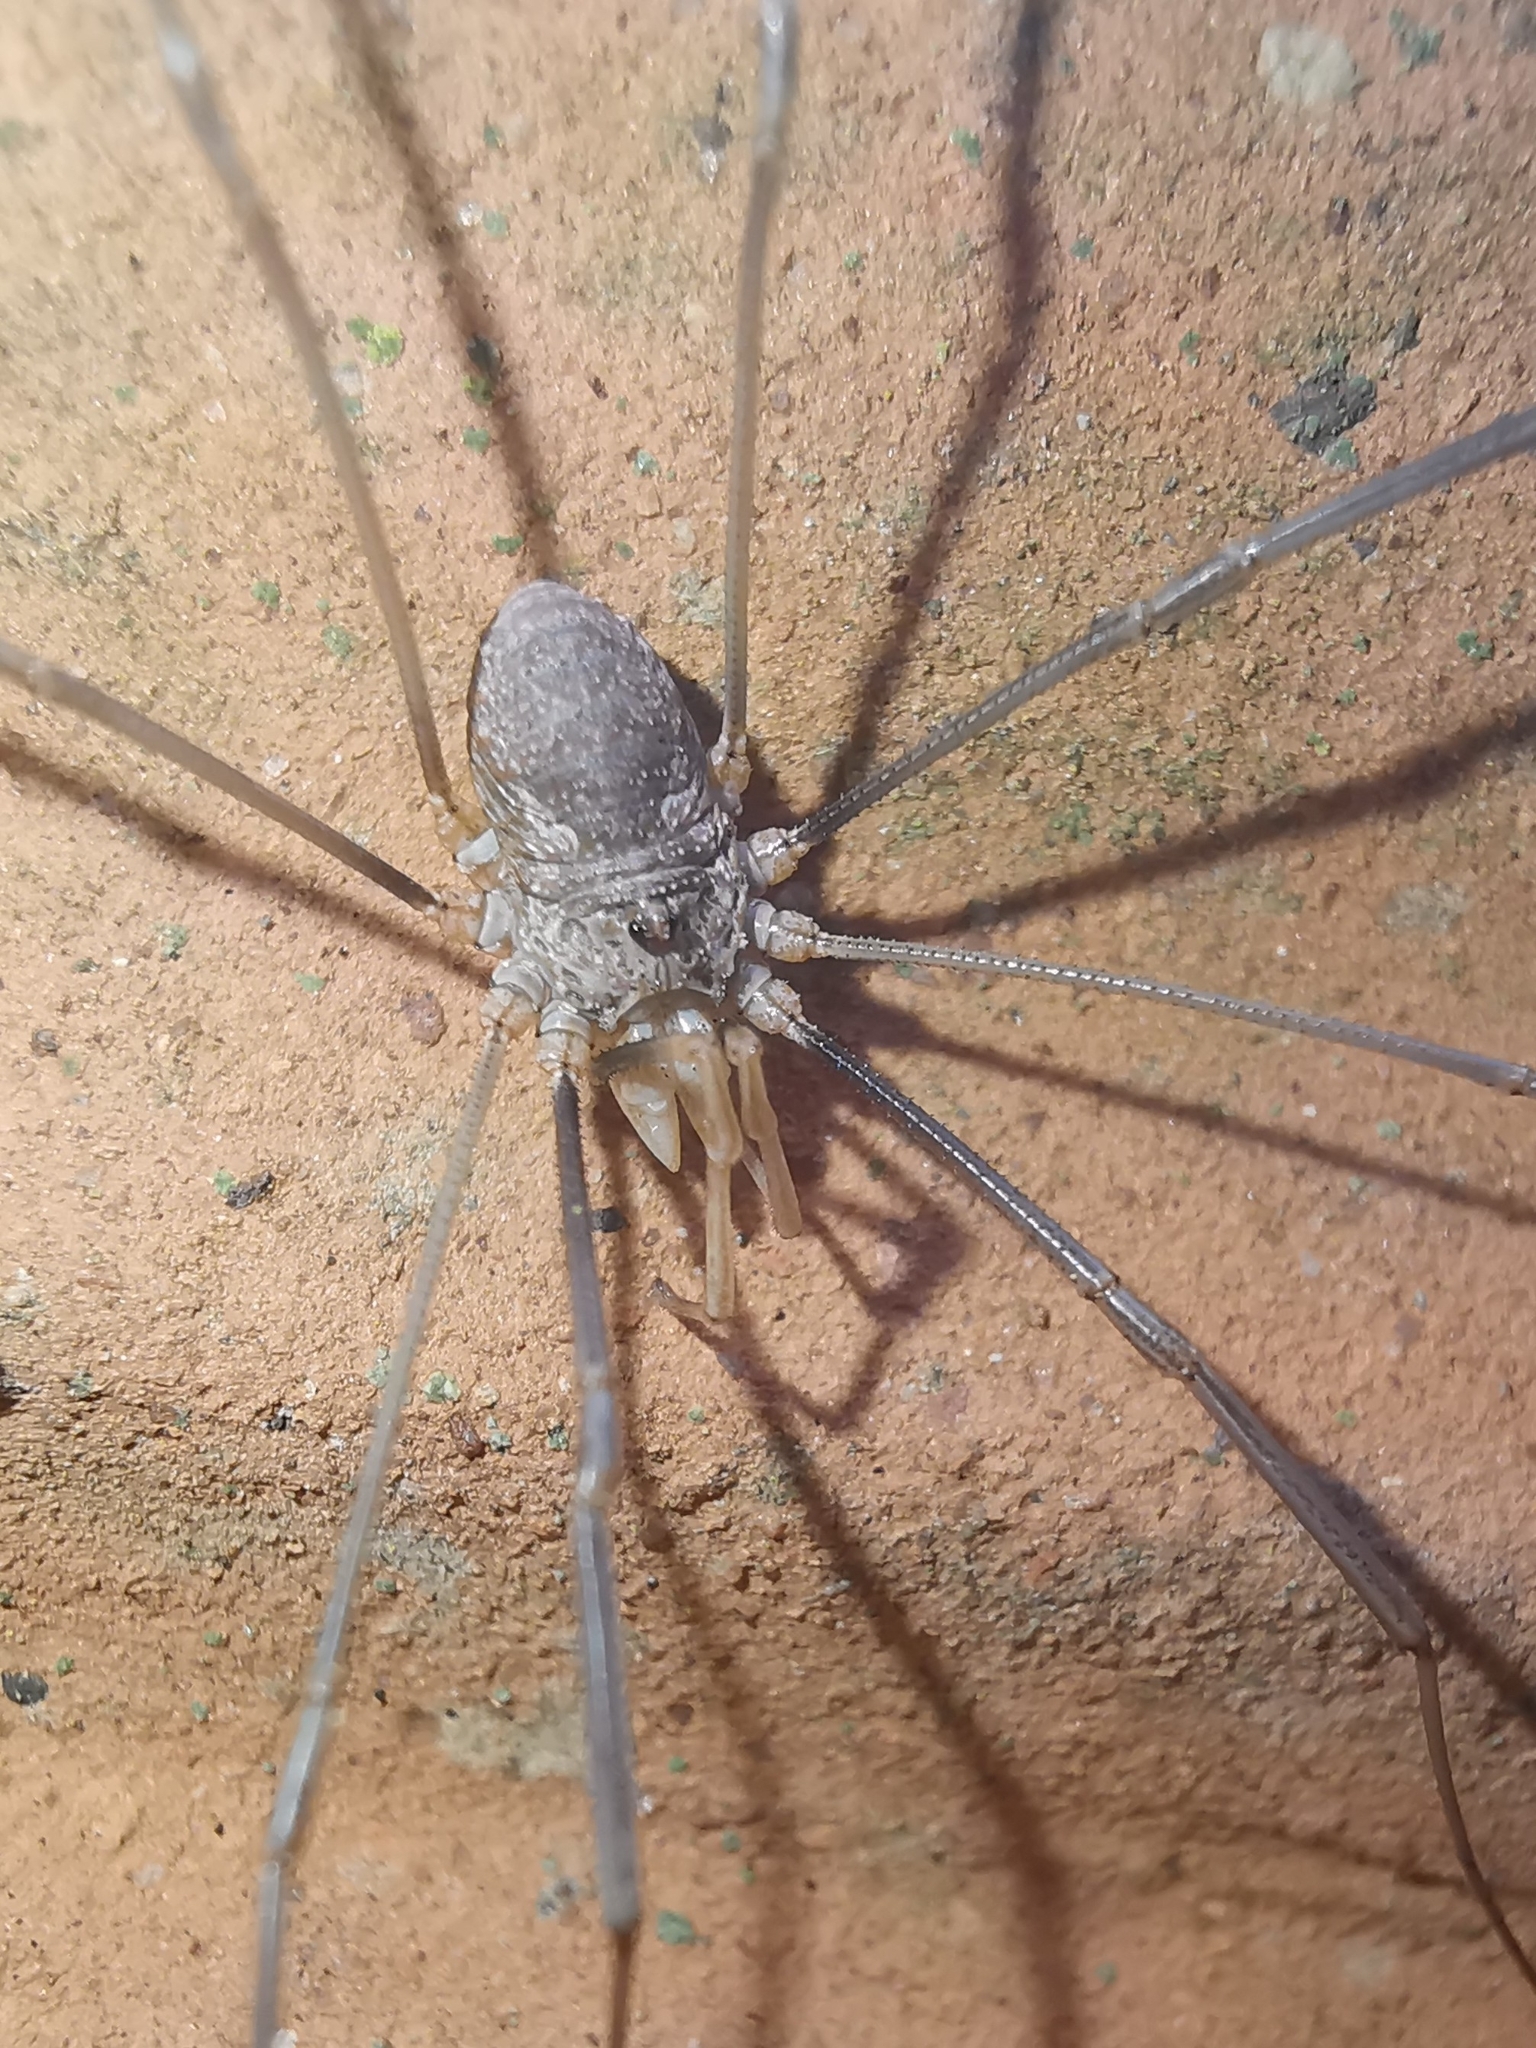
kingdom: Animalia
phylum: Arthropoda
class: Arachnida
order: Opiliones
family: Phalangiidae
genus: Phalangium
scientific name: Phalangium opilio
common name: Daddy longleg
